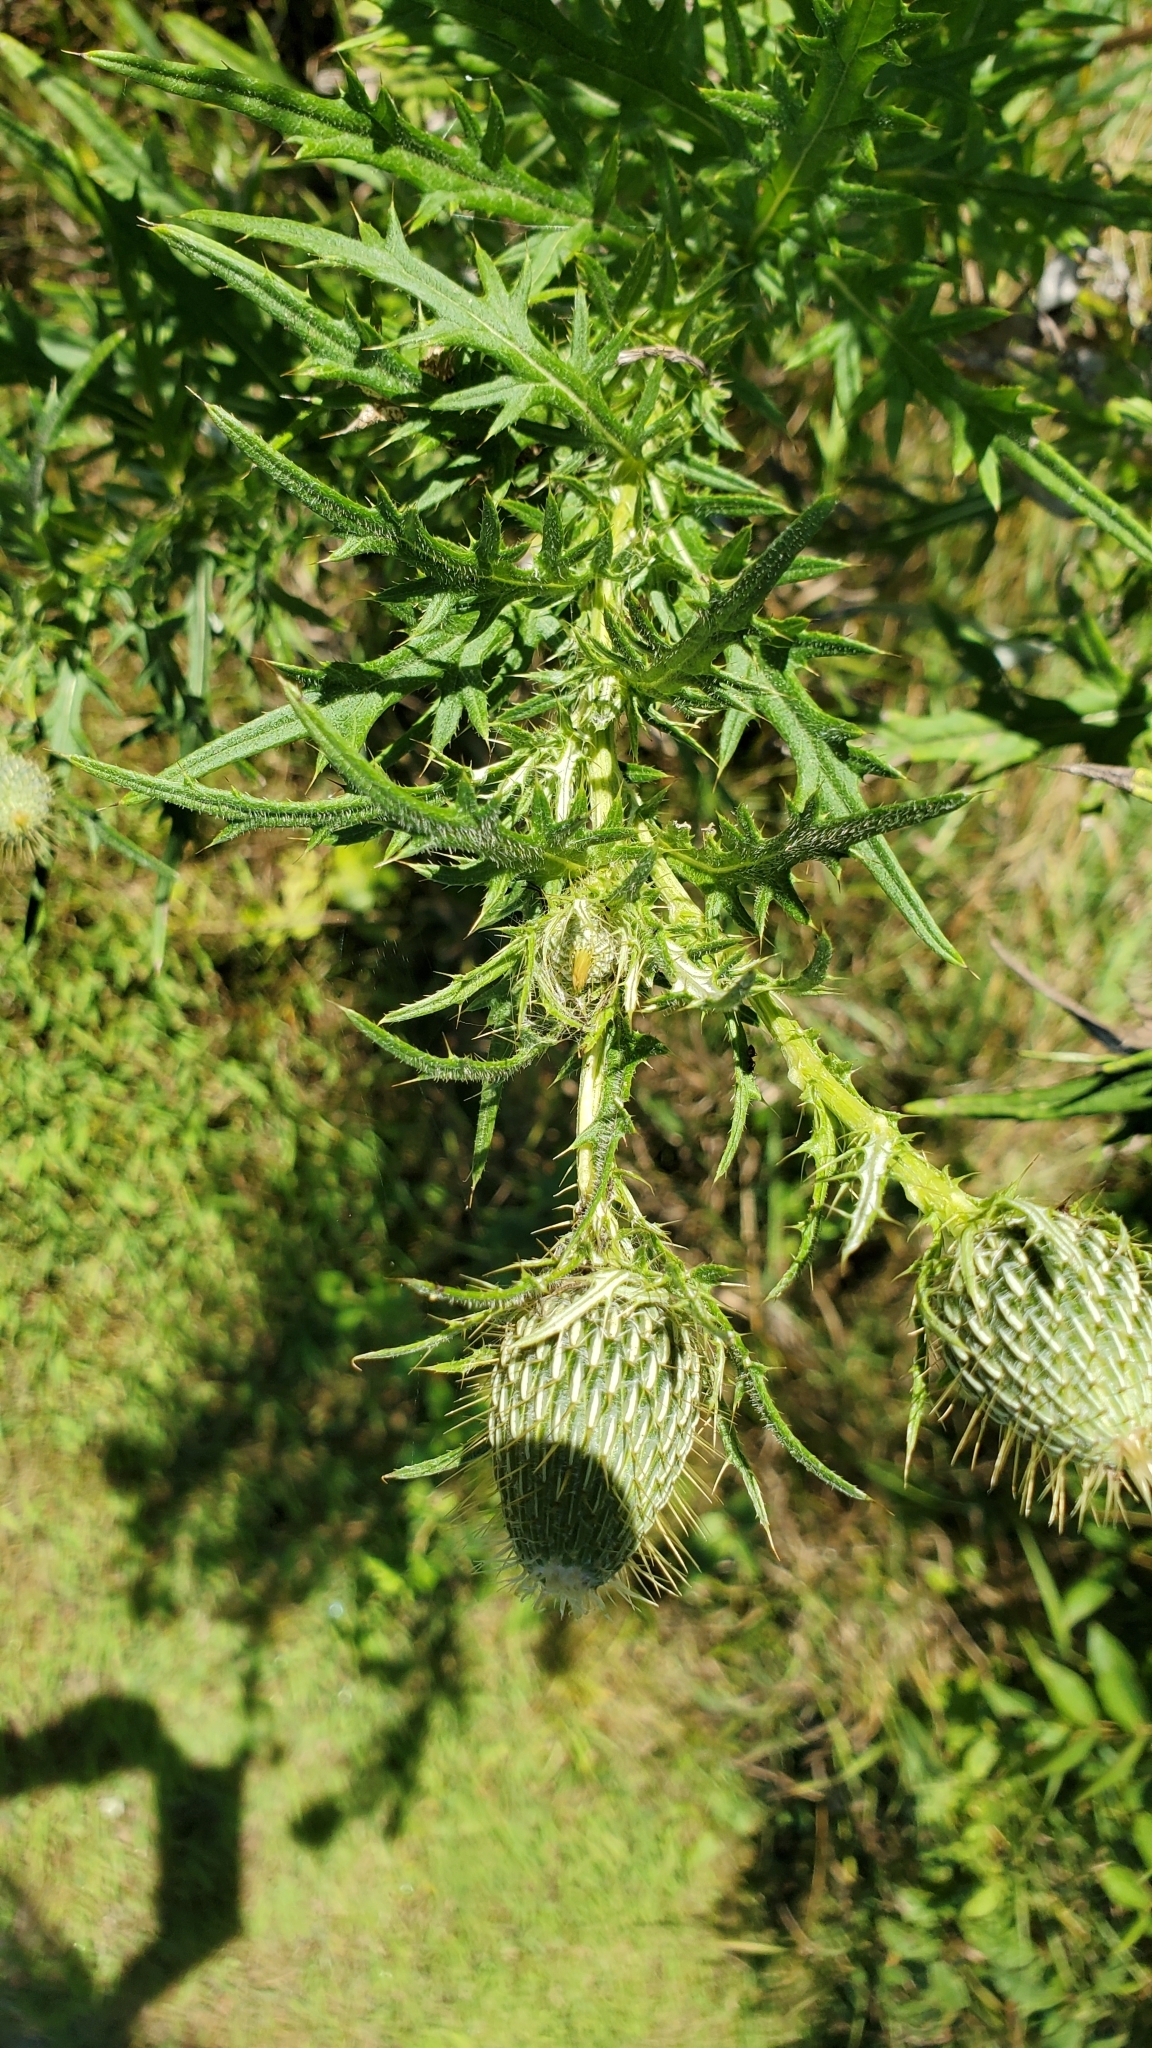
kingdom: Plantae
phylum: Tracheophyta
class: Magnoliopsida
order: Asterales
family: Asteraceae
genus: Cirsium
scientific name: Cirsium discolor
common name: Field thistle
